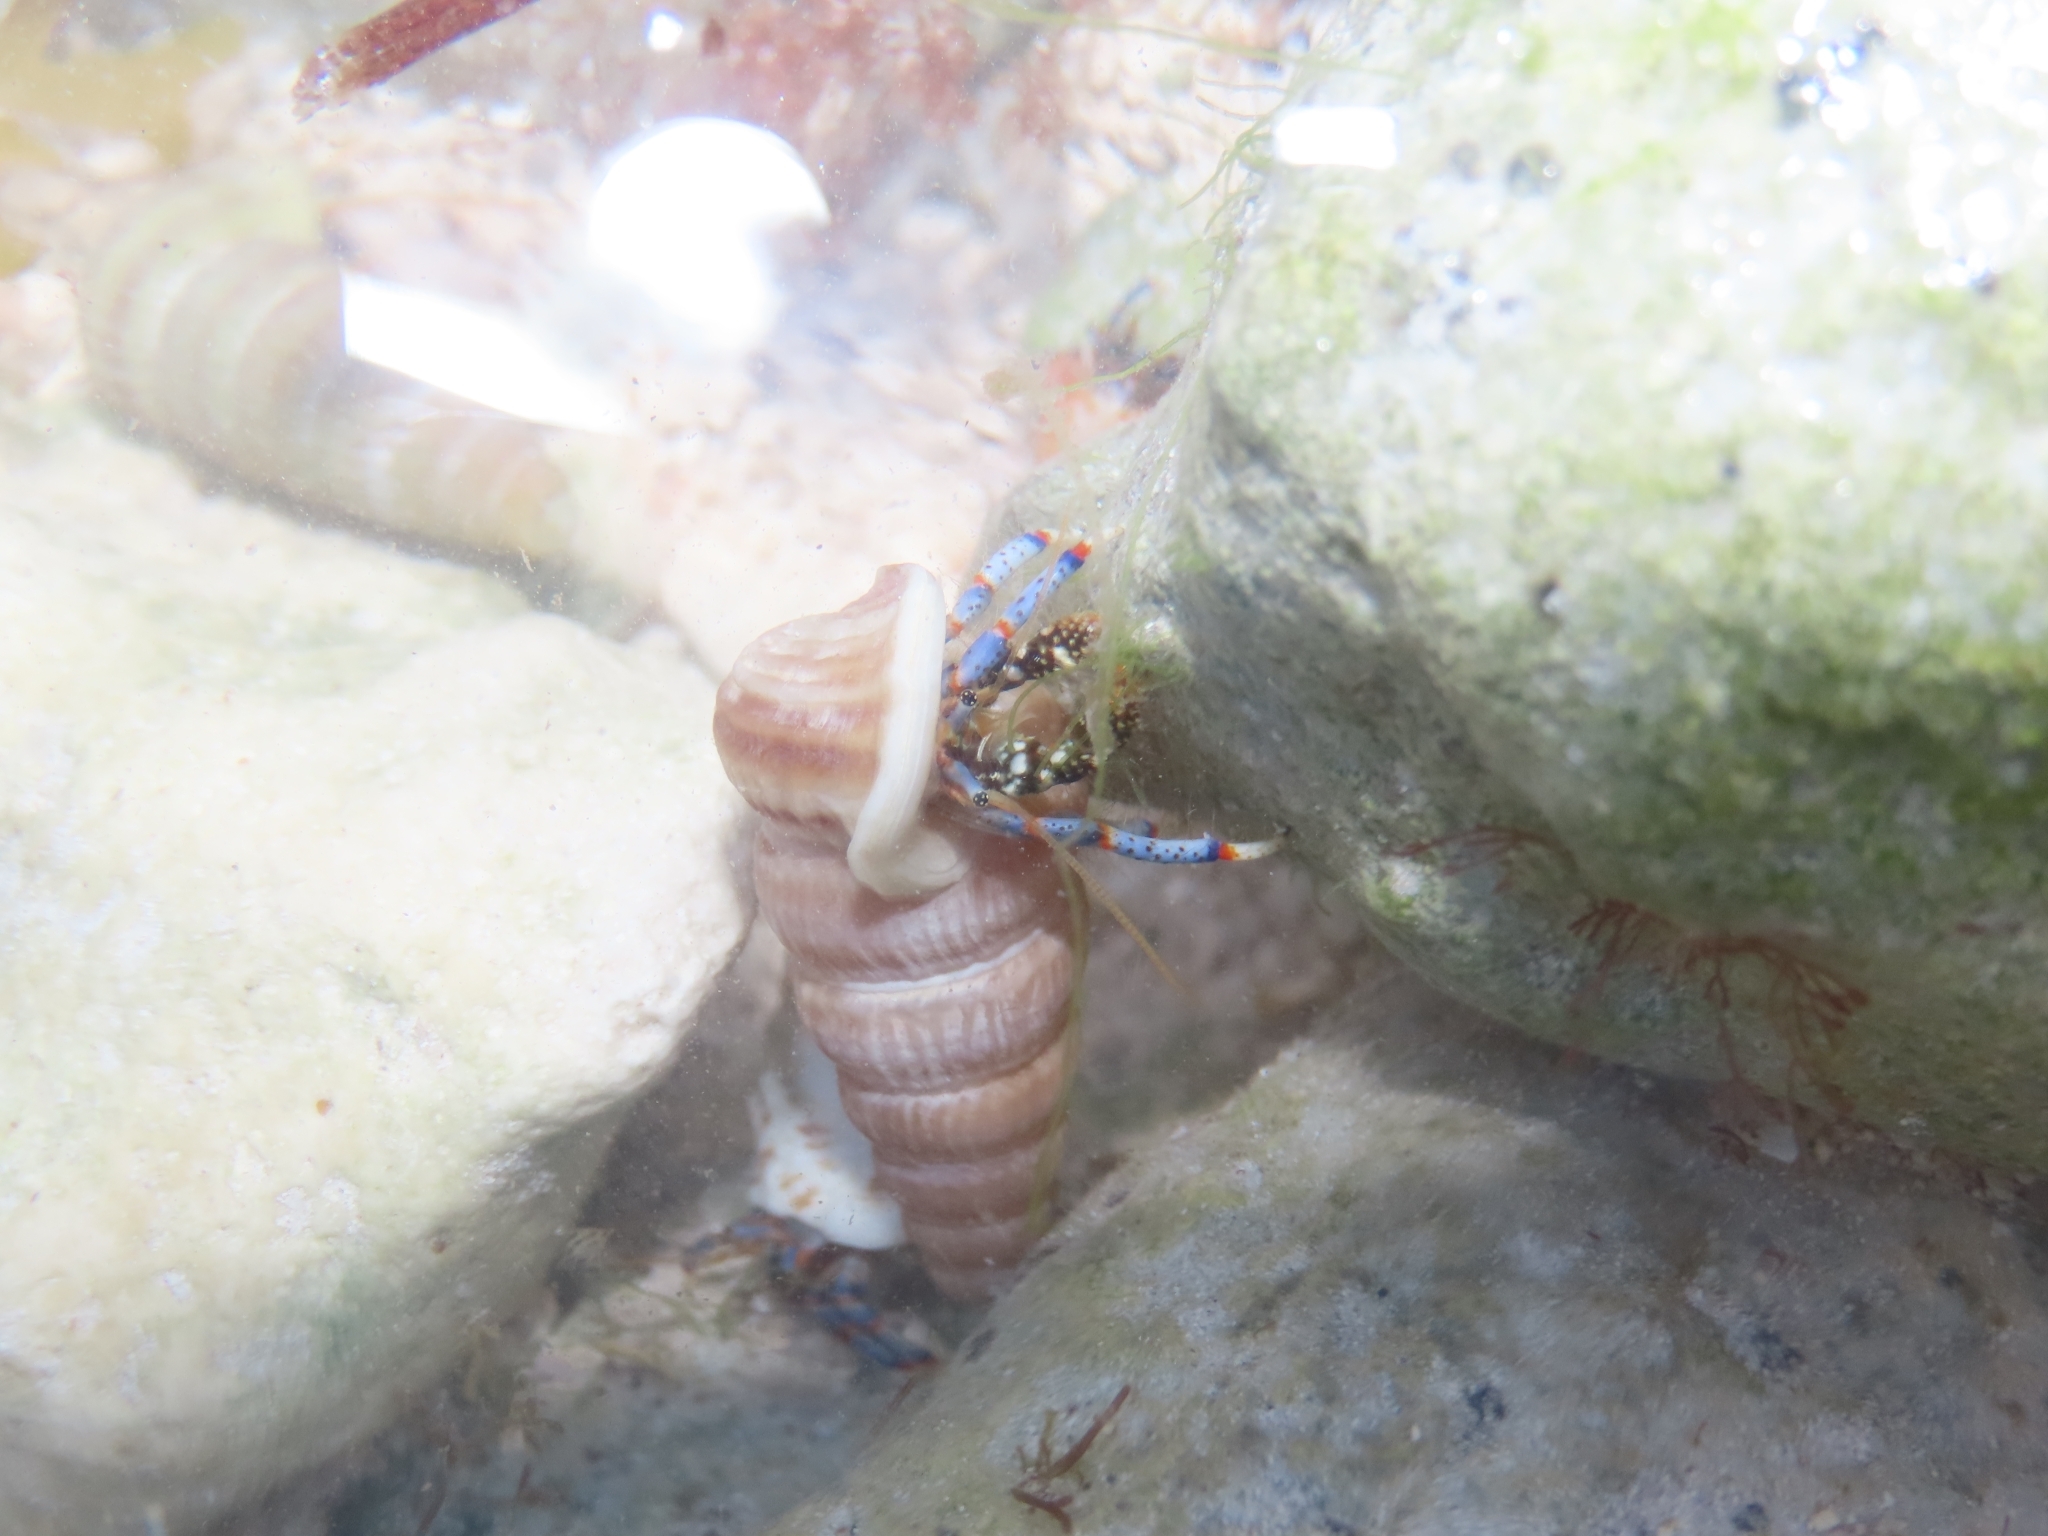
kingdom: Animalia
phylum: Arthropoda
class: Malacostraca
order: Decapoda
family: Diogenidae
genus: Clibanarius
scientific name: Clibanarius tricolor
